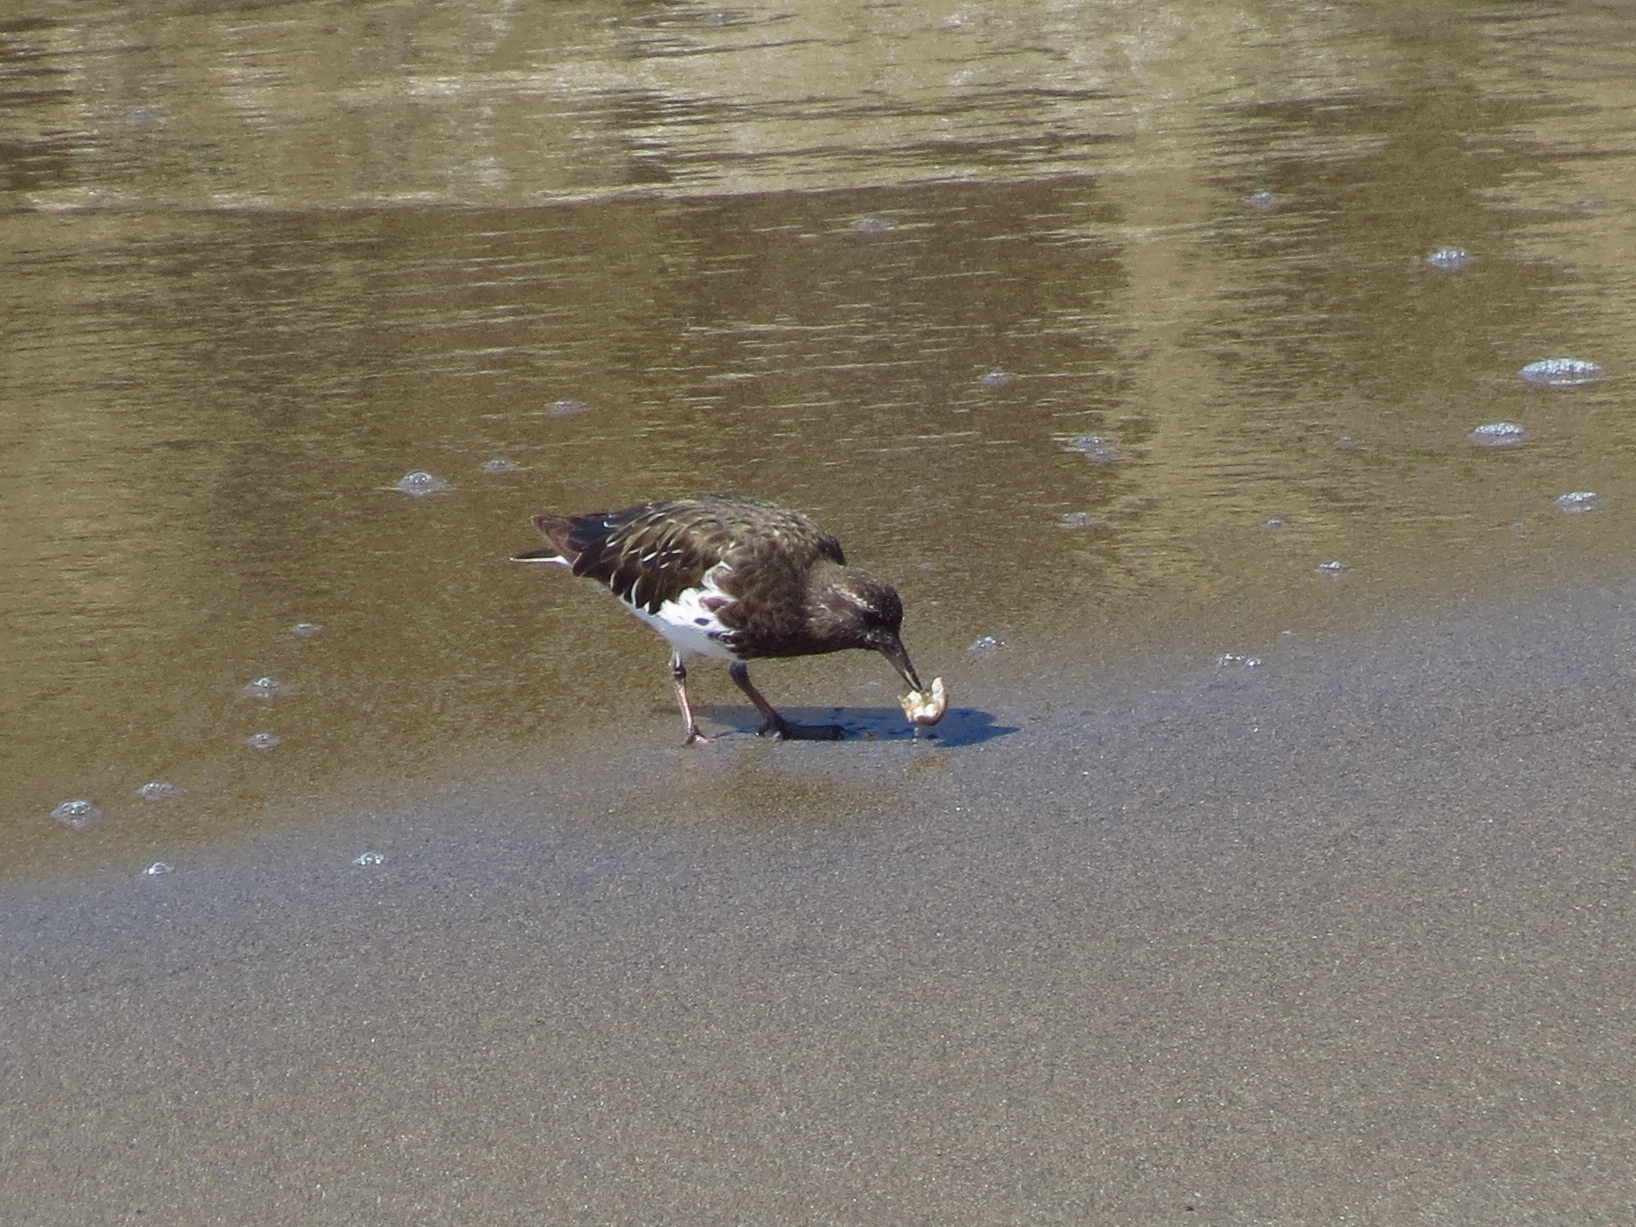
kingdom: Animalia
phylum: Chordata
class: Aves
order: Charadriiformes
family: Scolopacidae
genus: Arenaria
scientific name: Arenaria melanocephala
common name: Black turnstone
